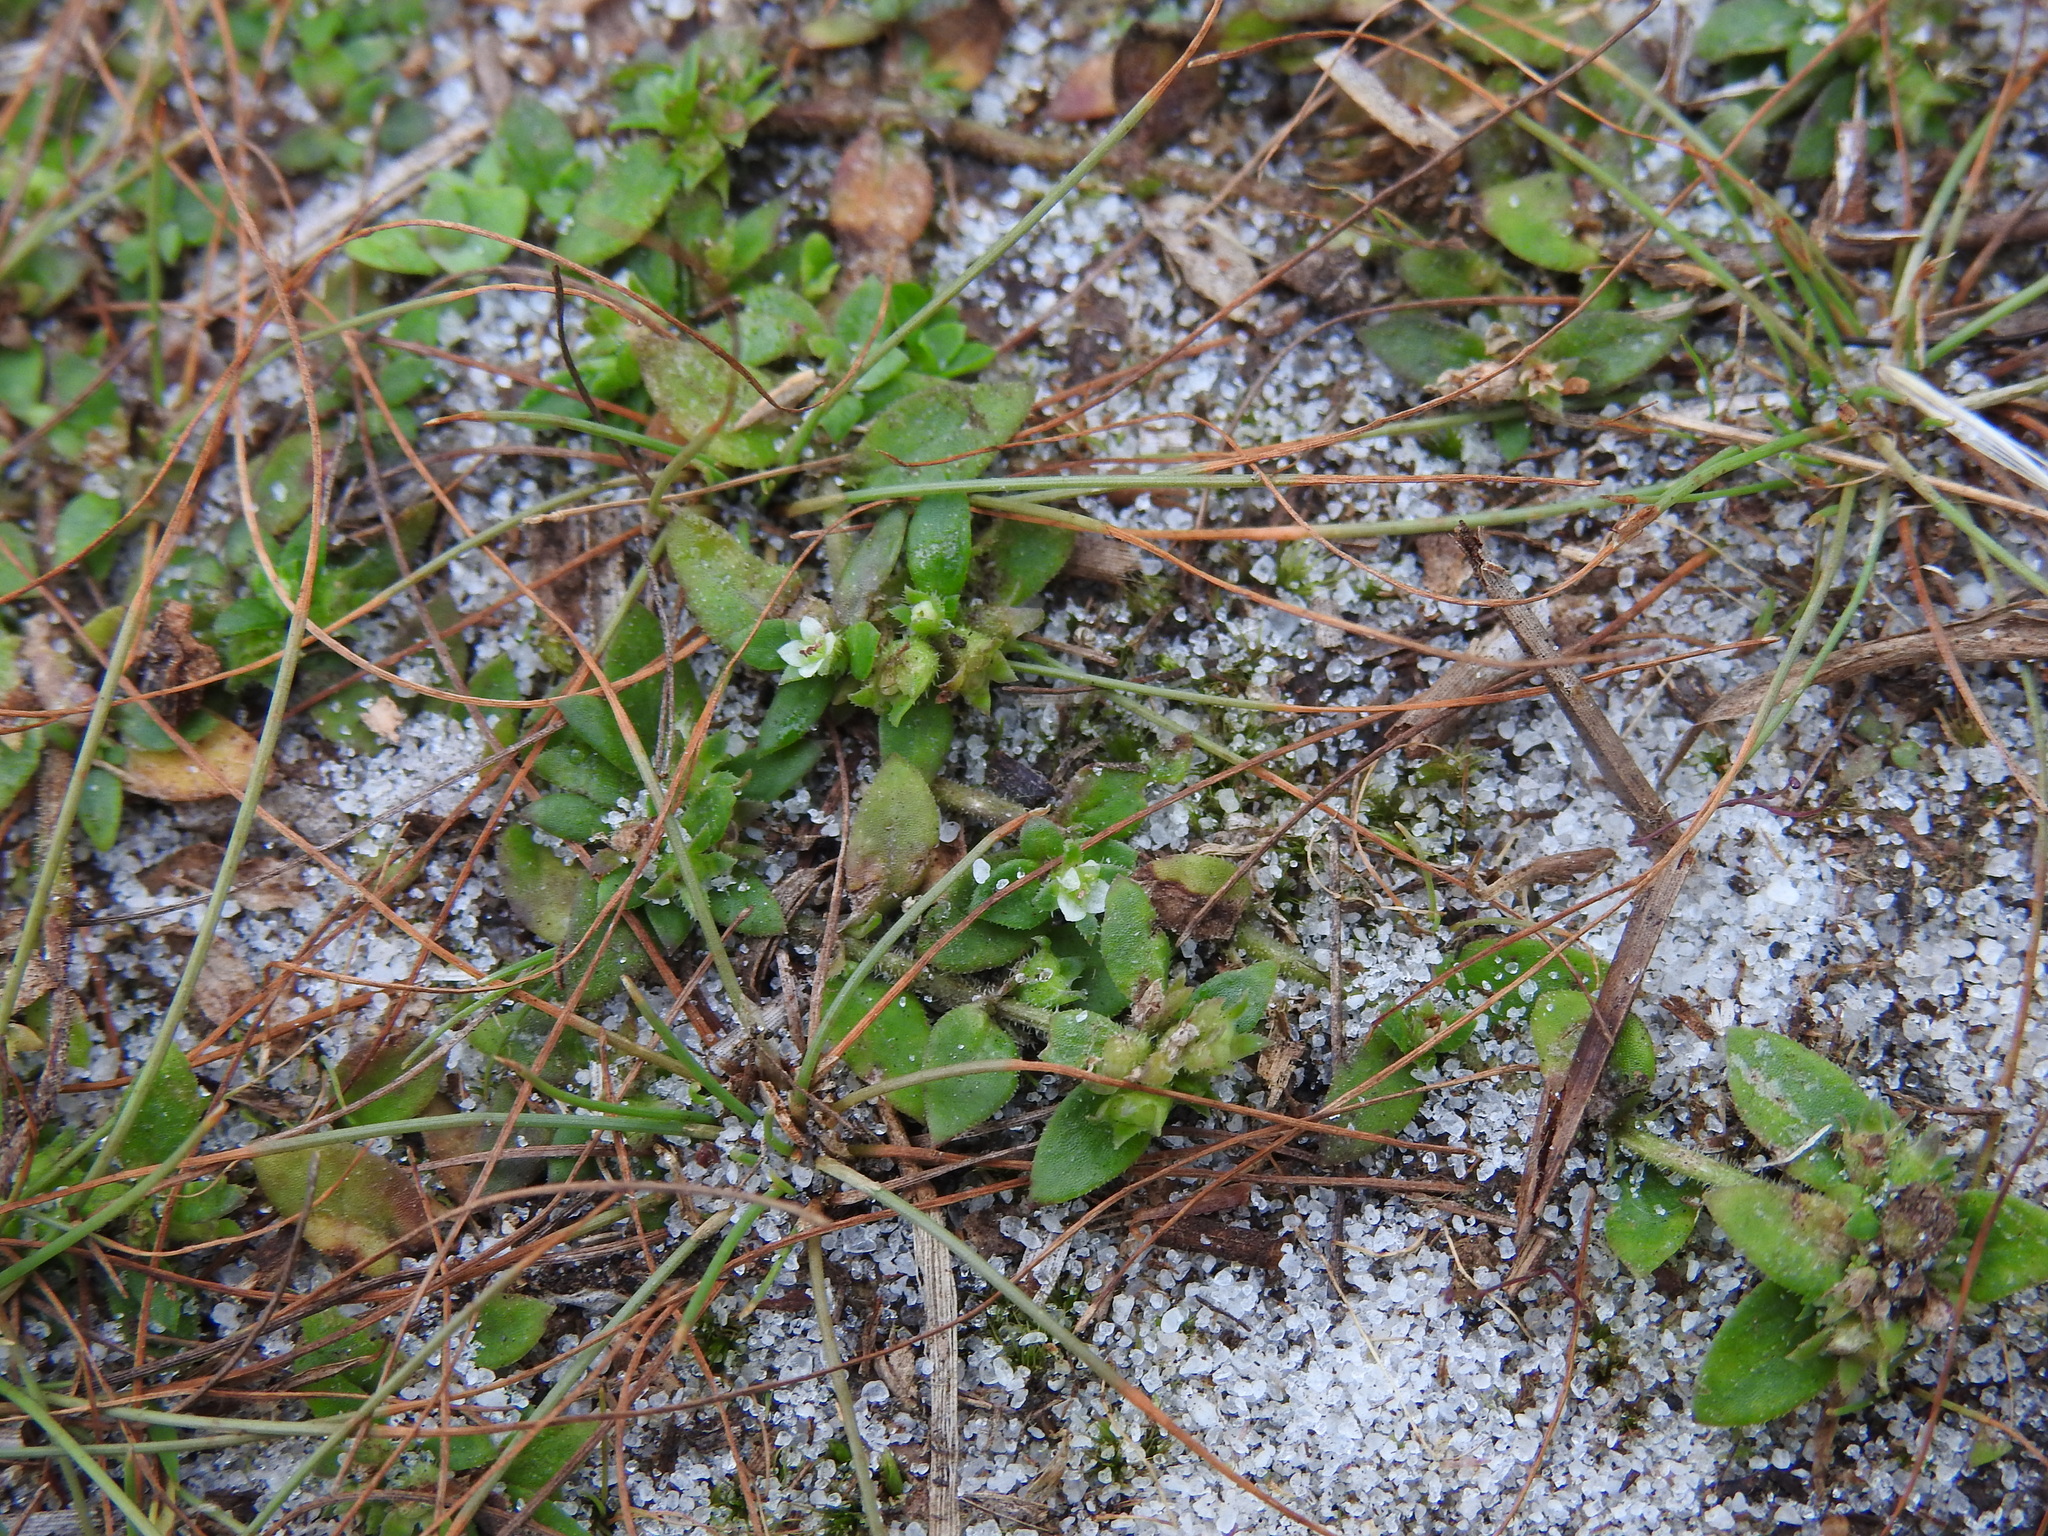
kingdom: Plantae
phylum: Tracheophyta
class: Magnoliopsida
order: Gentianales
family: Rubiaceae
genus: Houstonia
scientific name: Houstonia procumbens
